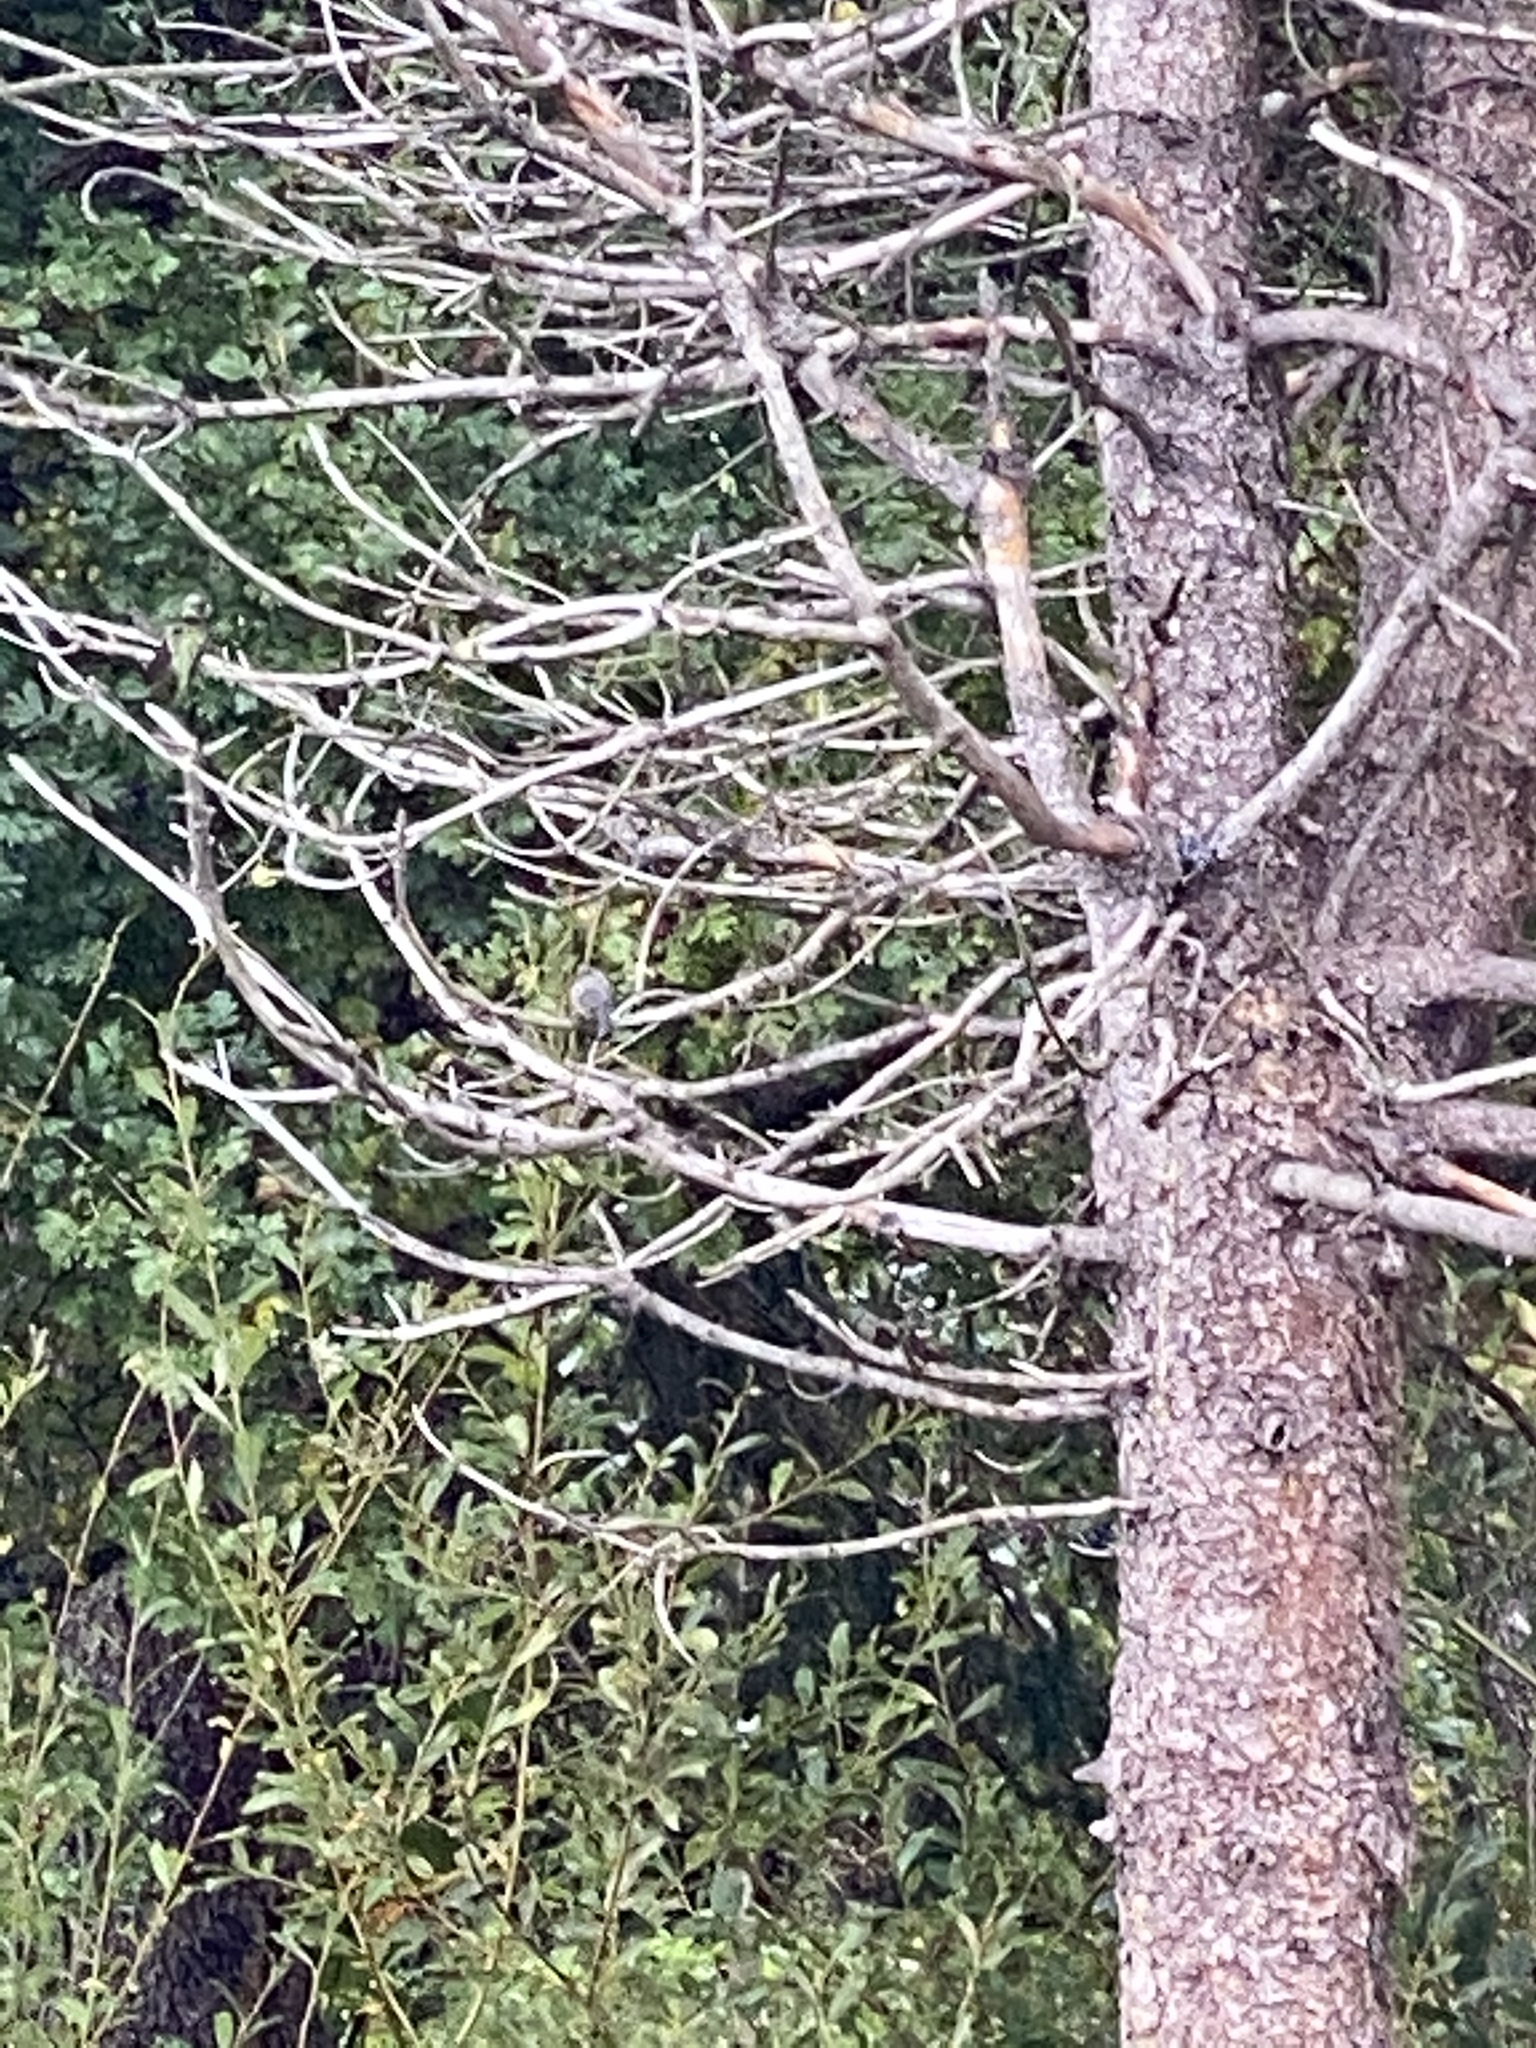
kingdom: Animalia
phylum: Chordata
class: Aves
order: Passeriformes
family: Aegithalidae
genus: Psaltriparus
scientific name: Psaltriparus minimus
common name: American bushtit
